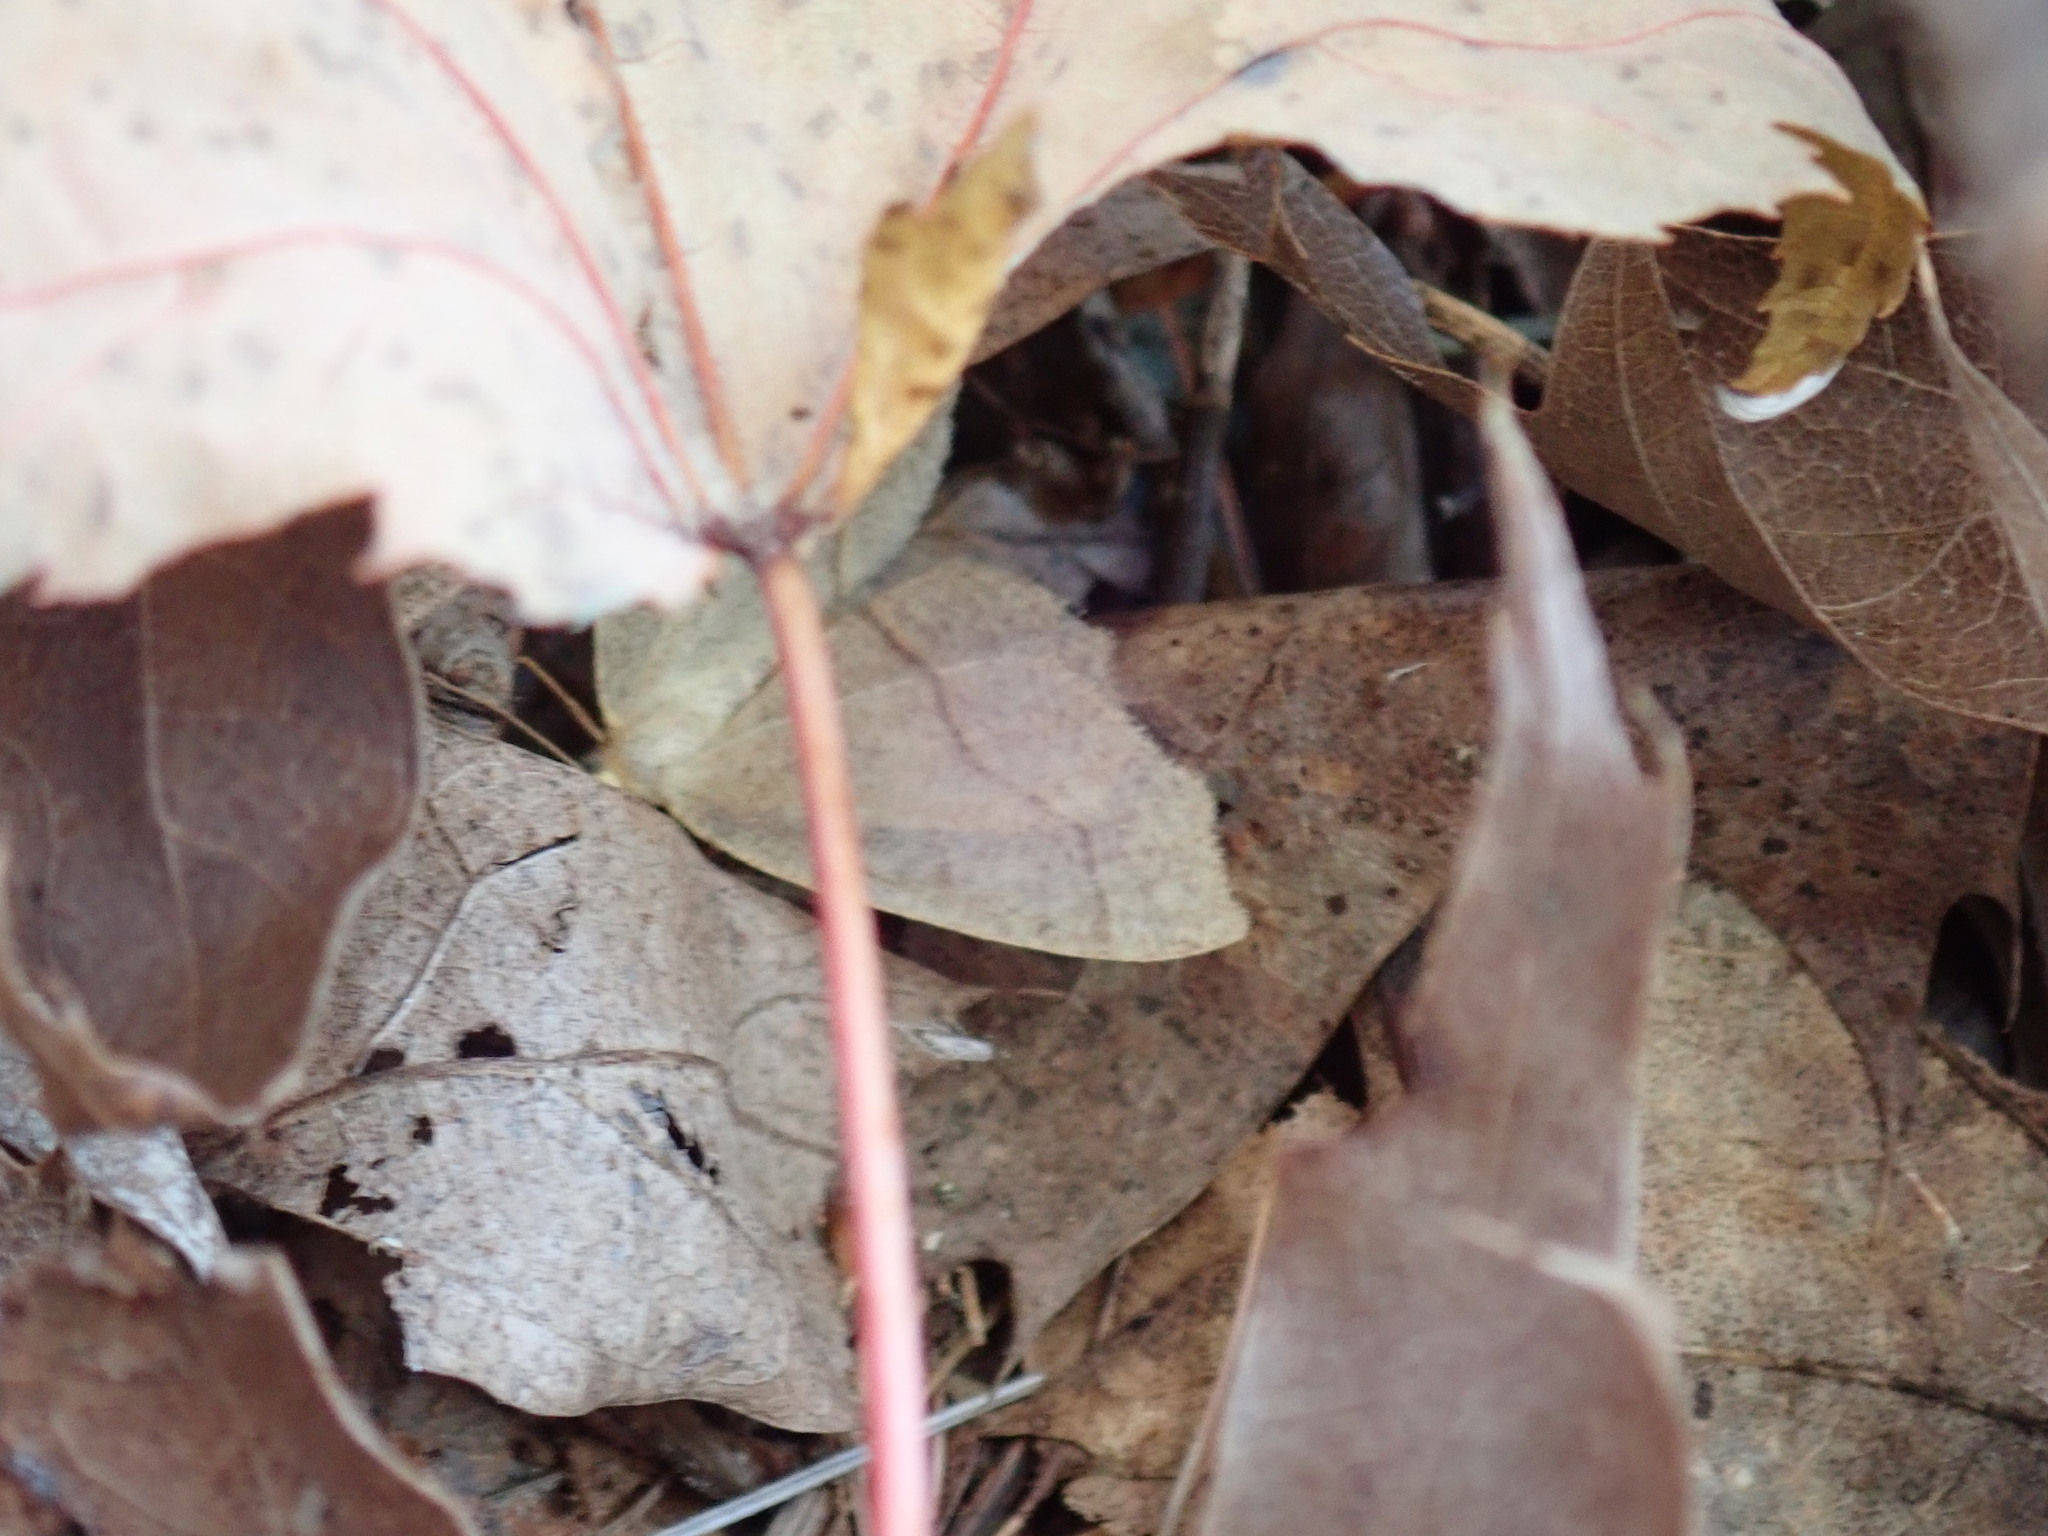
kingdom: Animalia
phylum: Arthropoda
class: Insecta
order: Lepidoptera
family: Geometridae
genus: Lambdina
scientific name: Lambdina fiscellaria
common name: Hemlock looper
